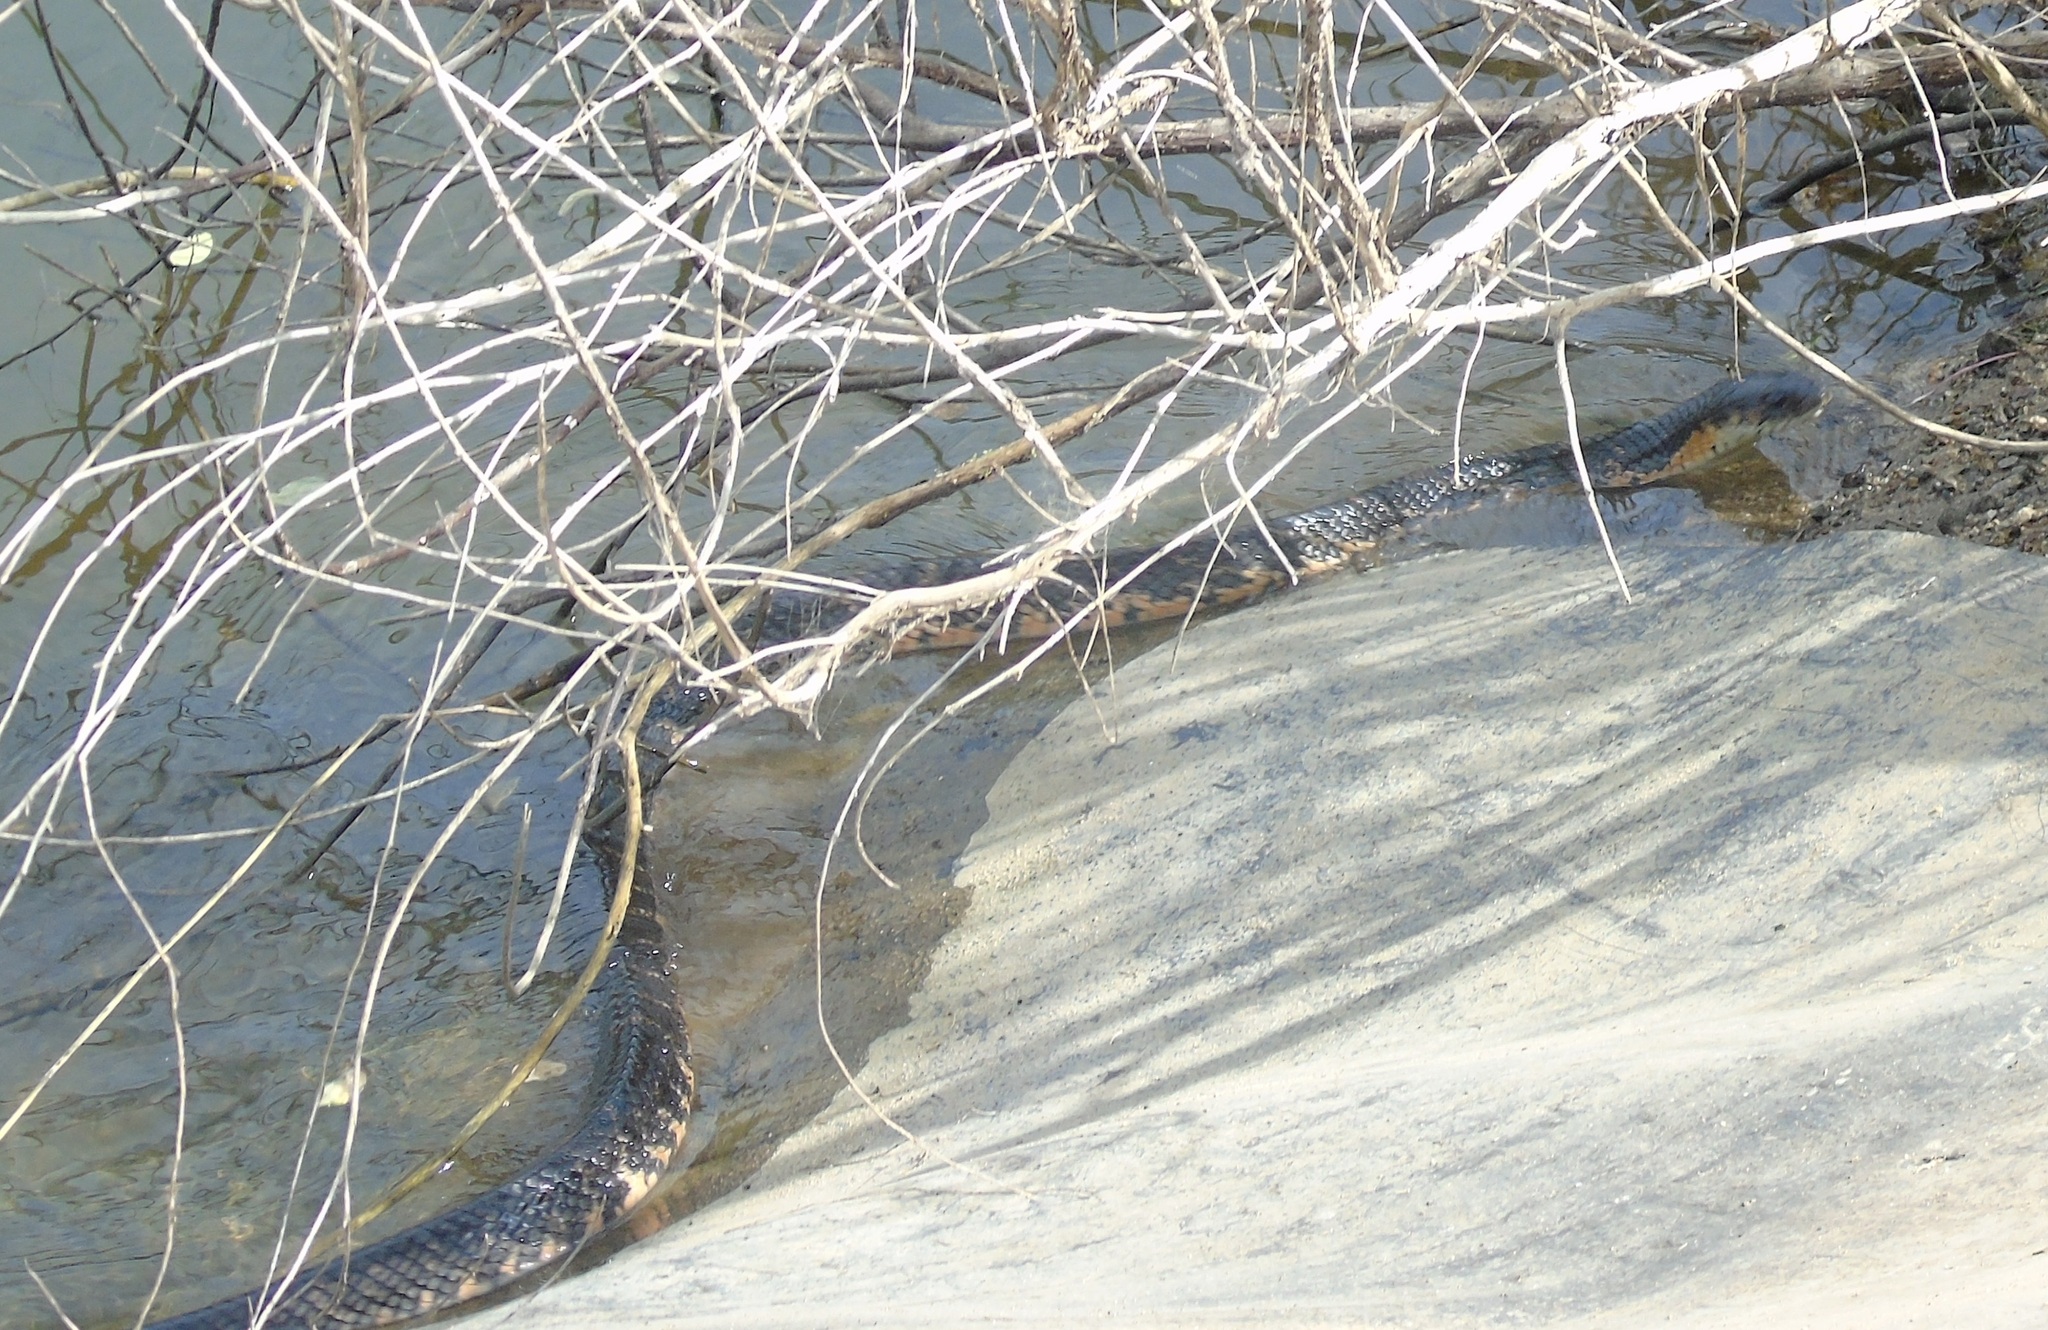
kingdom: Animalia
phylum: Chordata
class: Squamata
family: Colubridae
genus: Drymarchon
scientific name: Drymarchon melanurus
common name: Central american indigo snake
